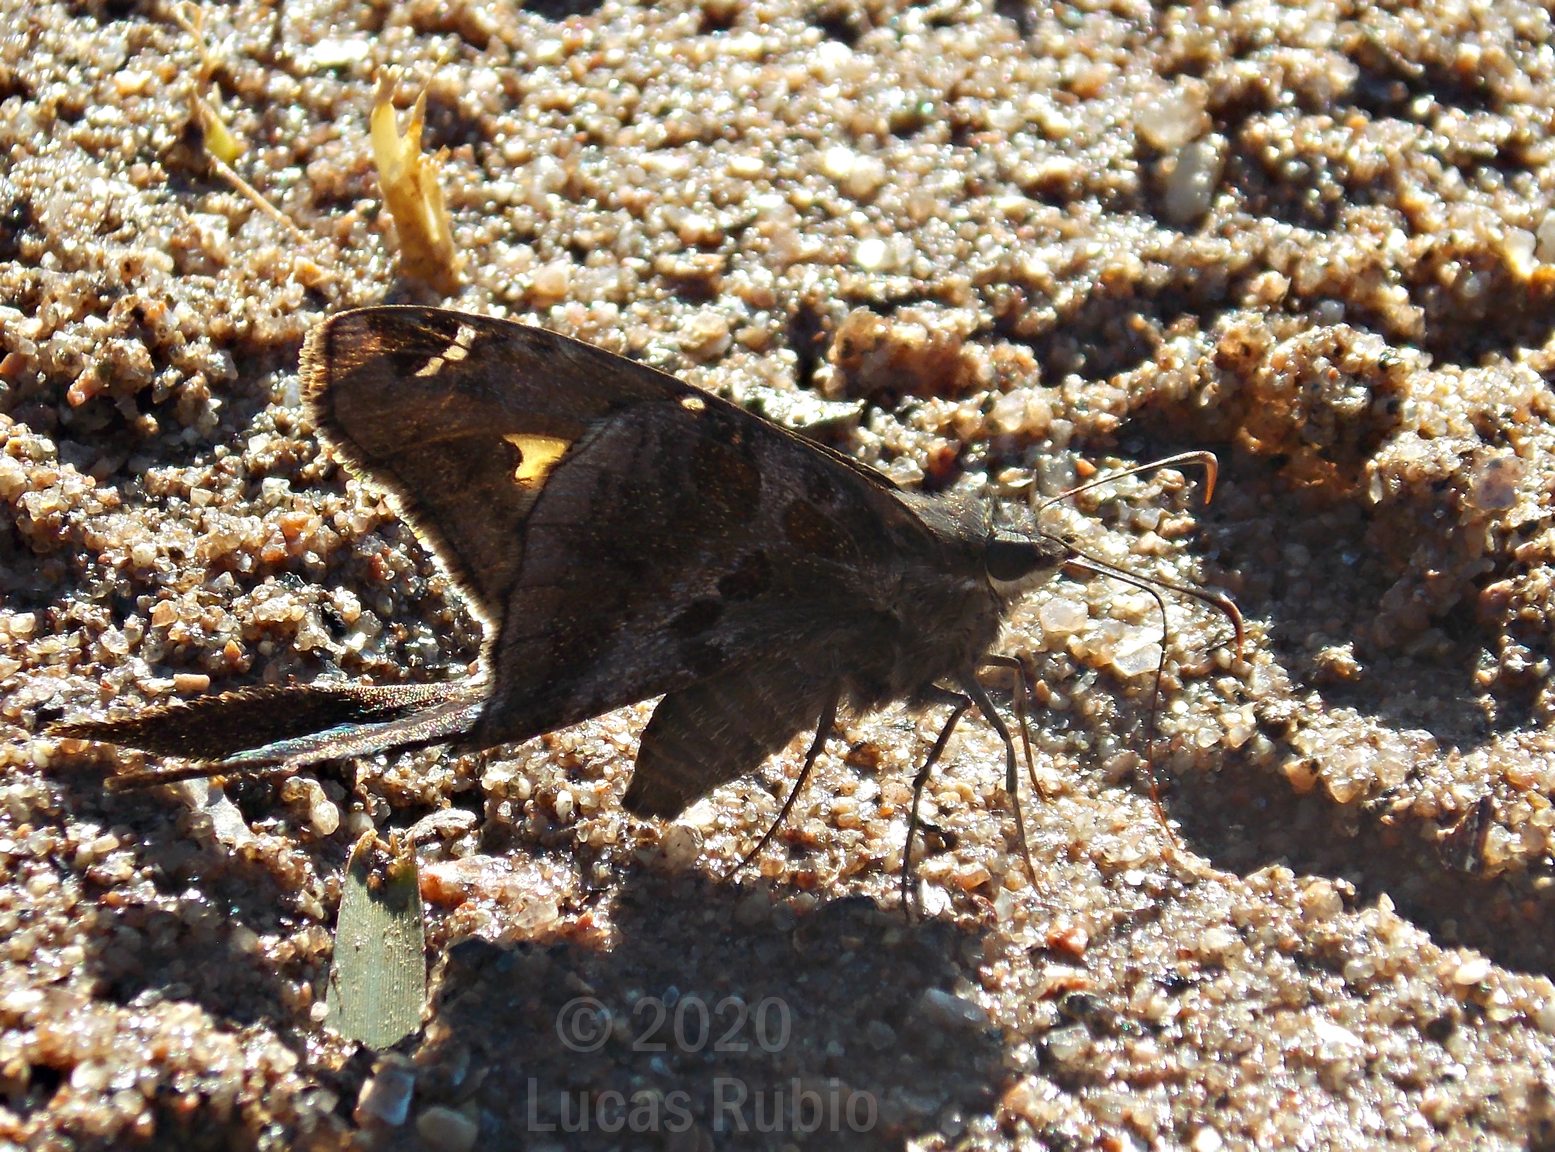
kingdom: Animalia
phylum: Arthropoda
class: Insecta
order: Lepidoptera
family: Hesperiidae
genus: Chioides
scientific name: Chioides catillus
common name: Silverbanded skipper
